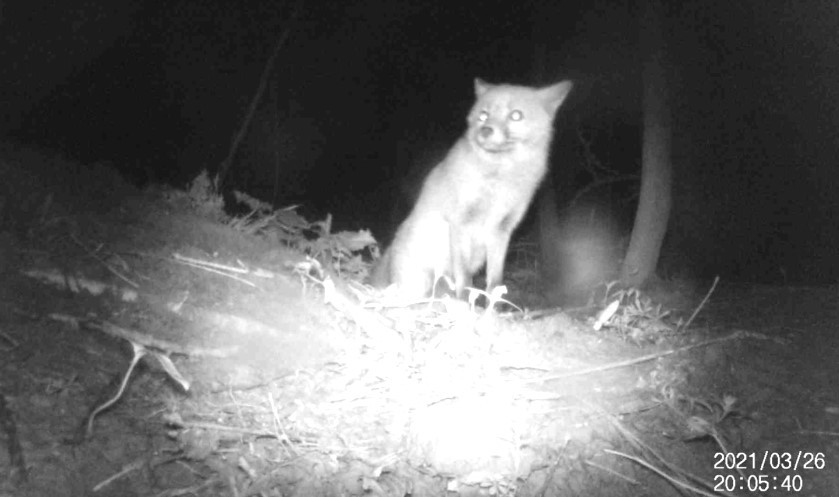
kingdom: Animalia
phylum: Chordata
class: Mammalia
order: Carnivora
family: Canidae
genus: Vulpes
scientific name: Vulpes vulpes
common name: Red fox
